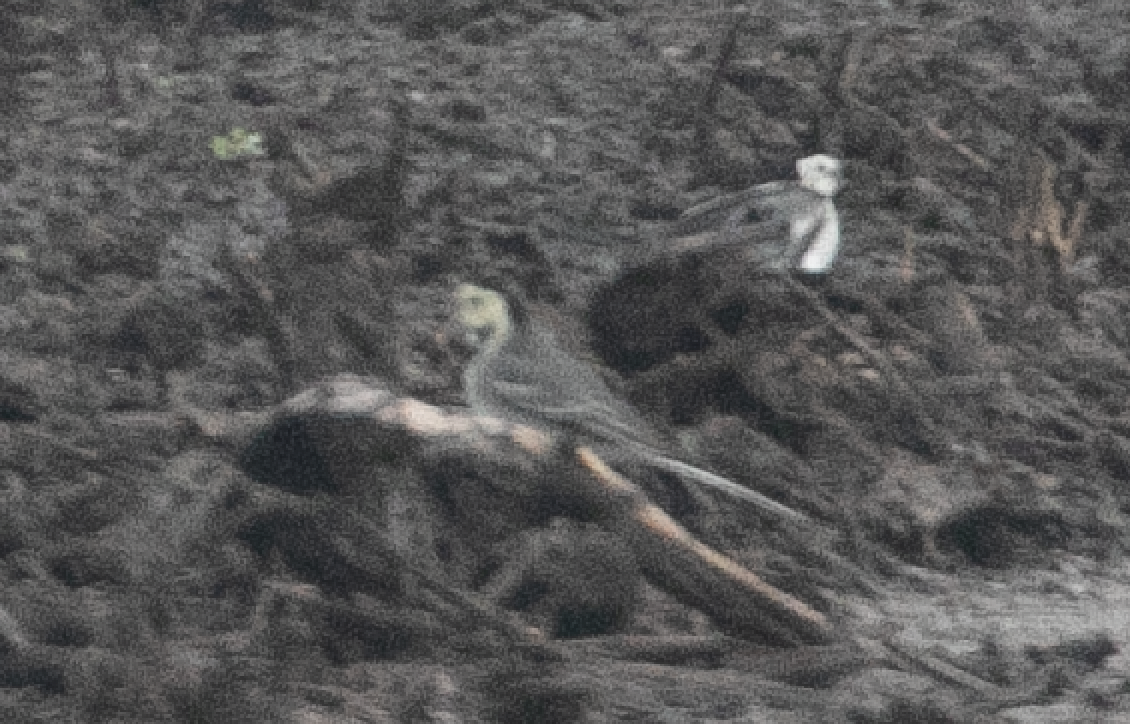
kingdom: Animalia
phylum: Chordata
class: Aves
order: Passeriformes
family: Motacillidae
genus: Motacilla
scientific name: Motacilla alba
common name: White wagtail
